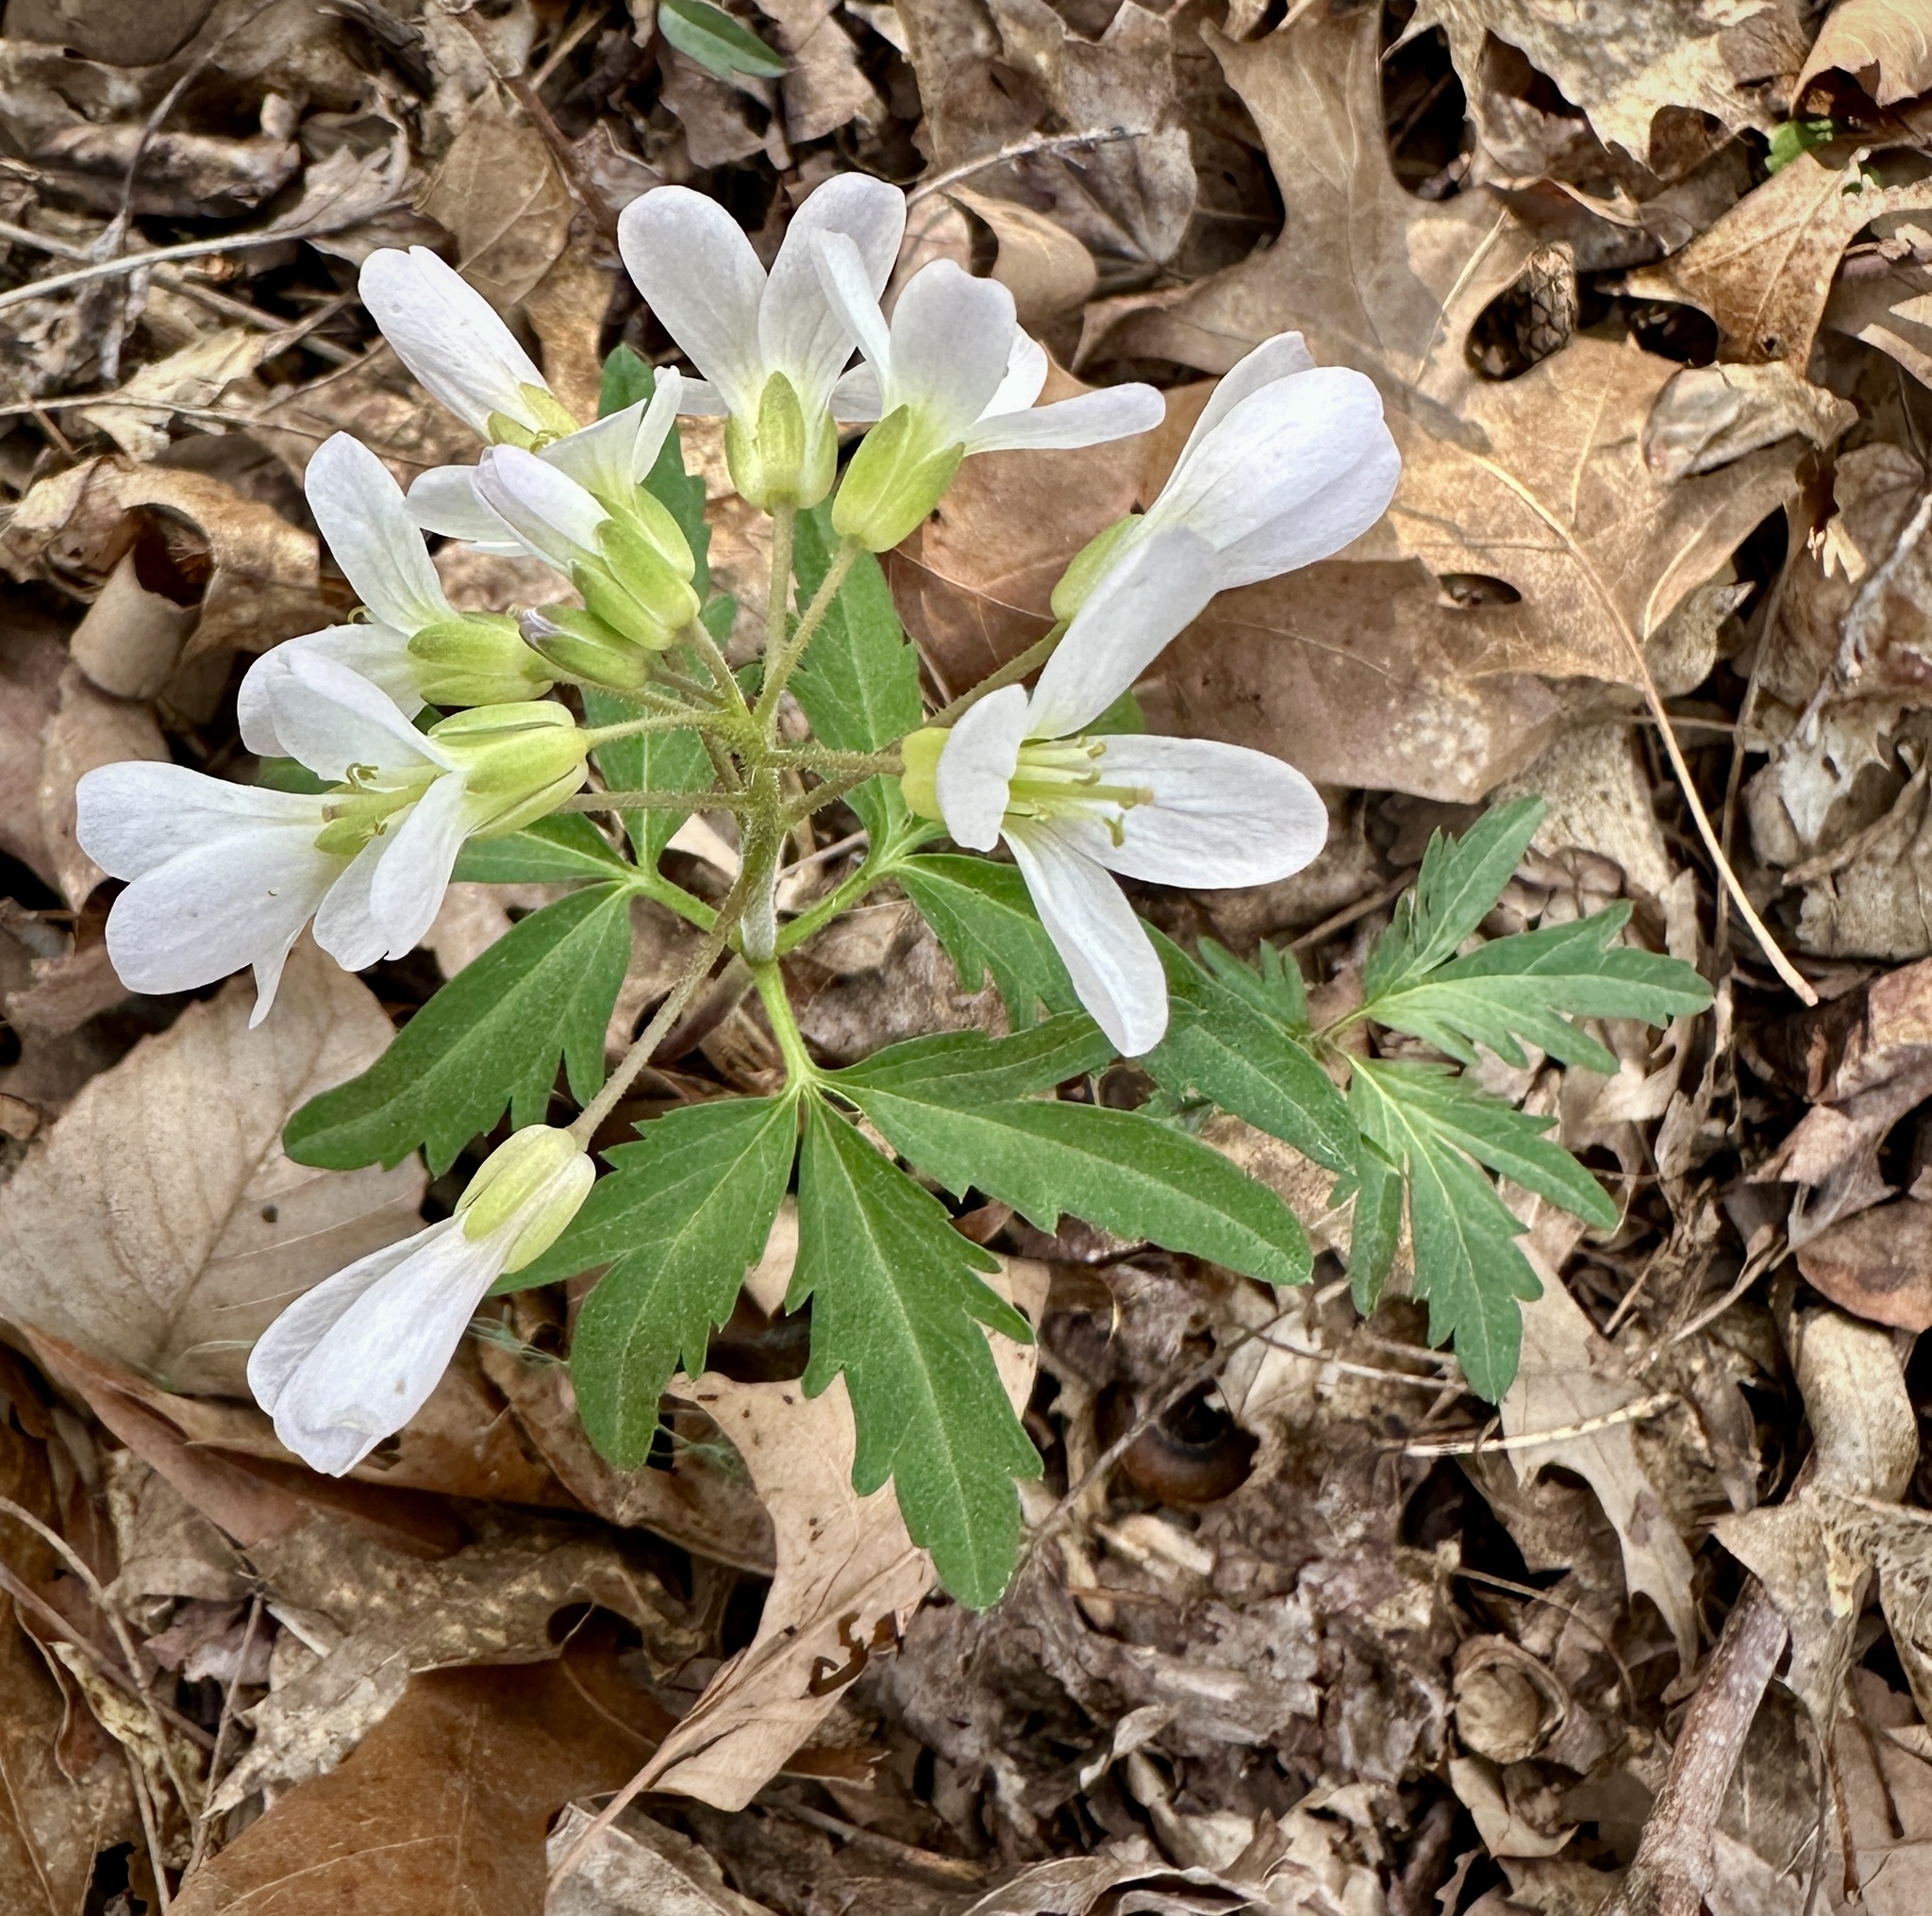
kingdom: Plantae
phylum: Tracheophyta
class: Magnoliopsida
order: Brassicales
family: Brassicaceae
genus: Cardamine
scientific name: Cardamine concatenata
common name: Cut-leaf toothcup
